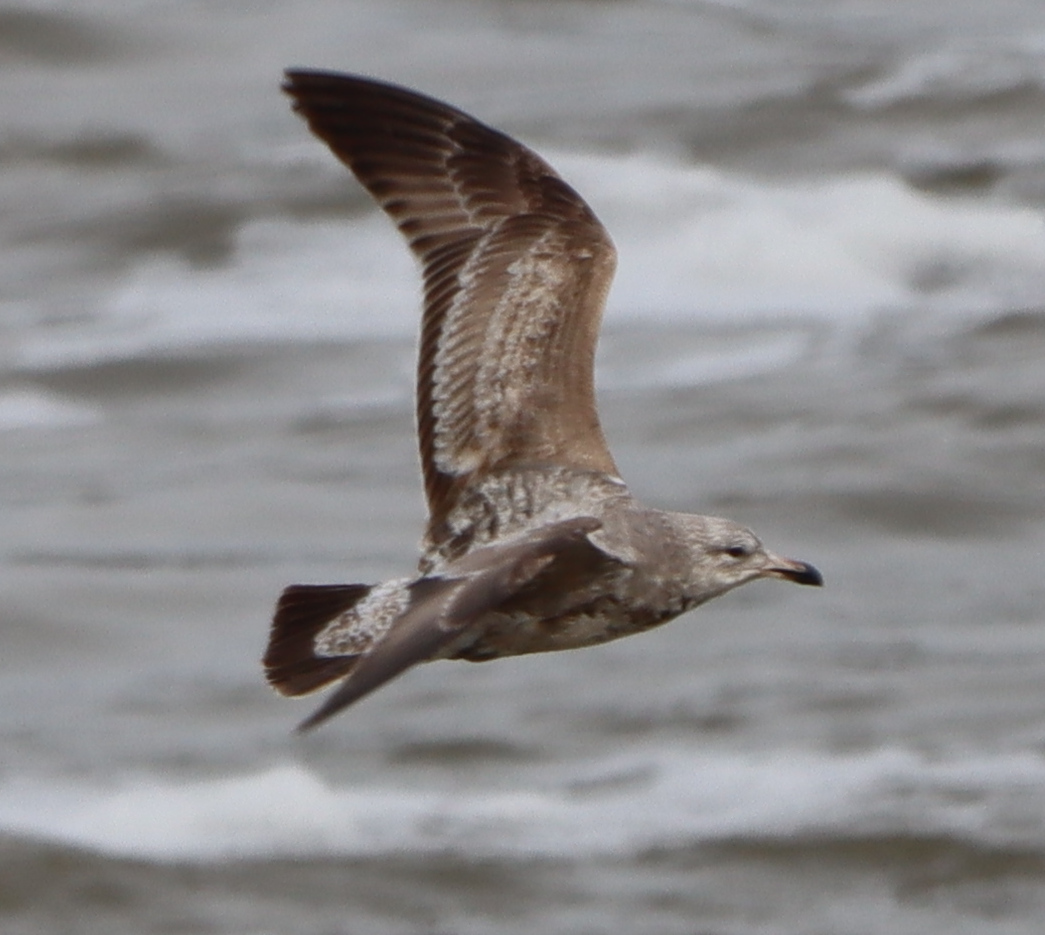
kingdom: Animalia
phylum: Chordata
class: Aves
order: Charadriiformes
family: Laridae
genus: Larus
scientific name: Larus argentatus
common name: Herring gull
